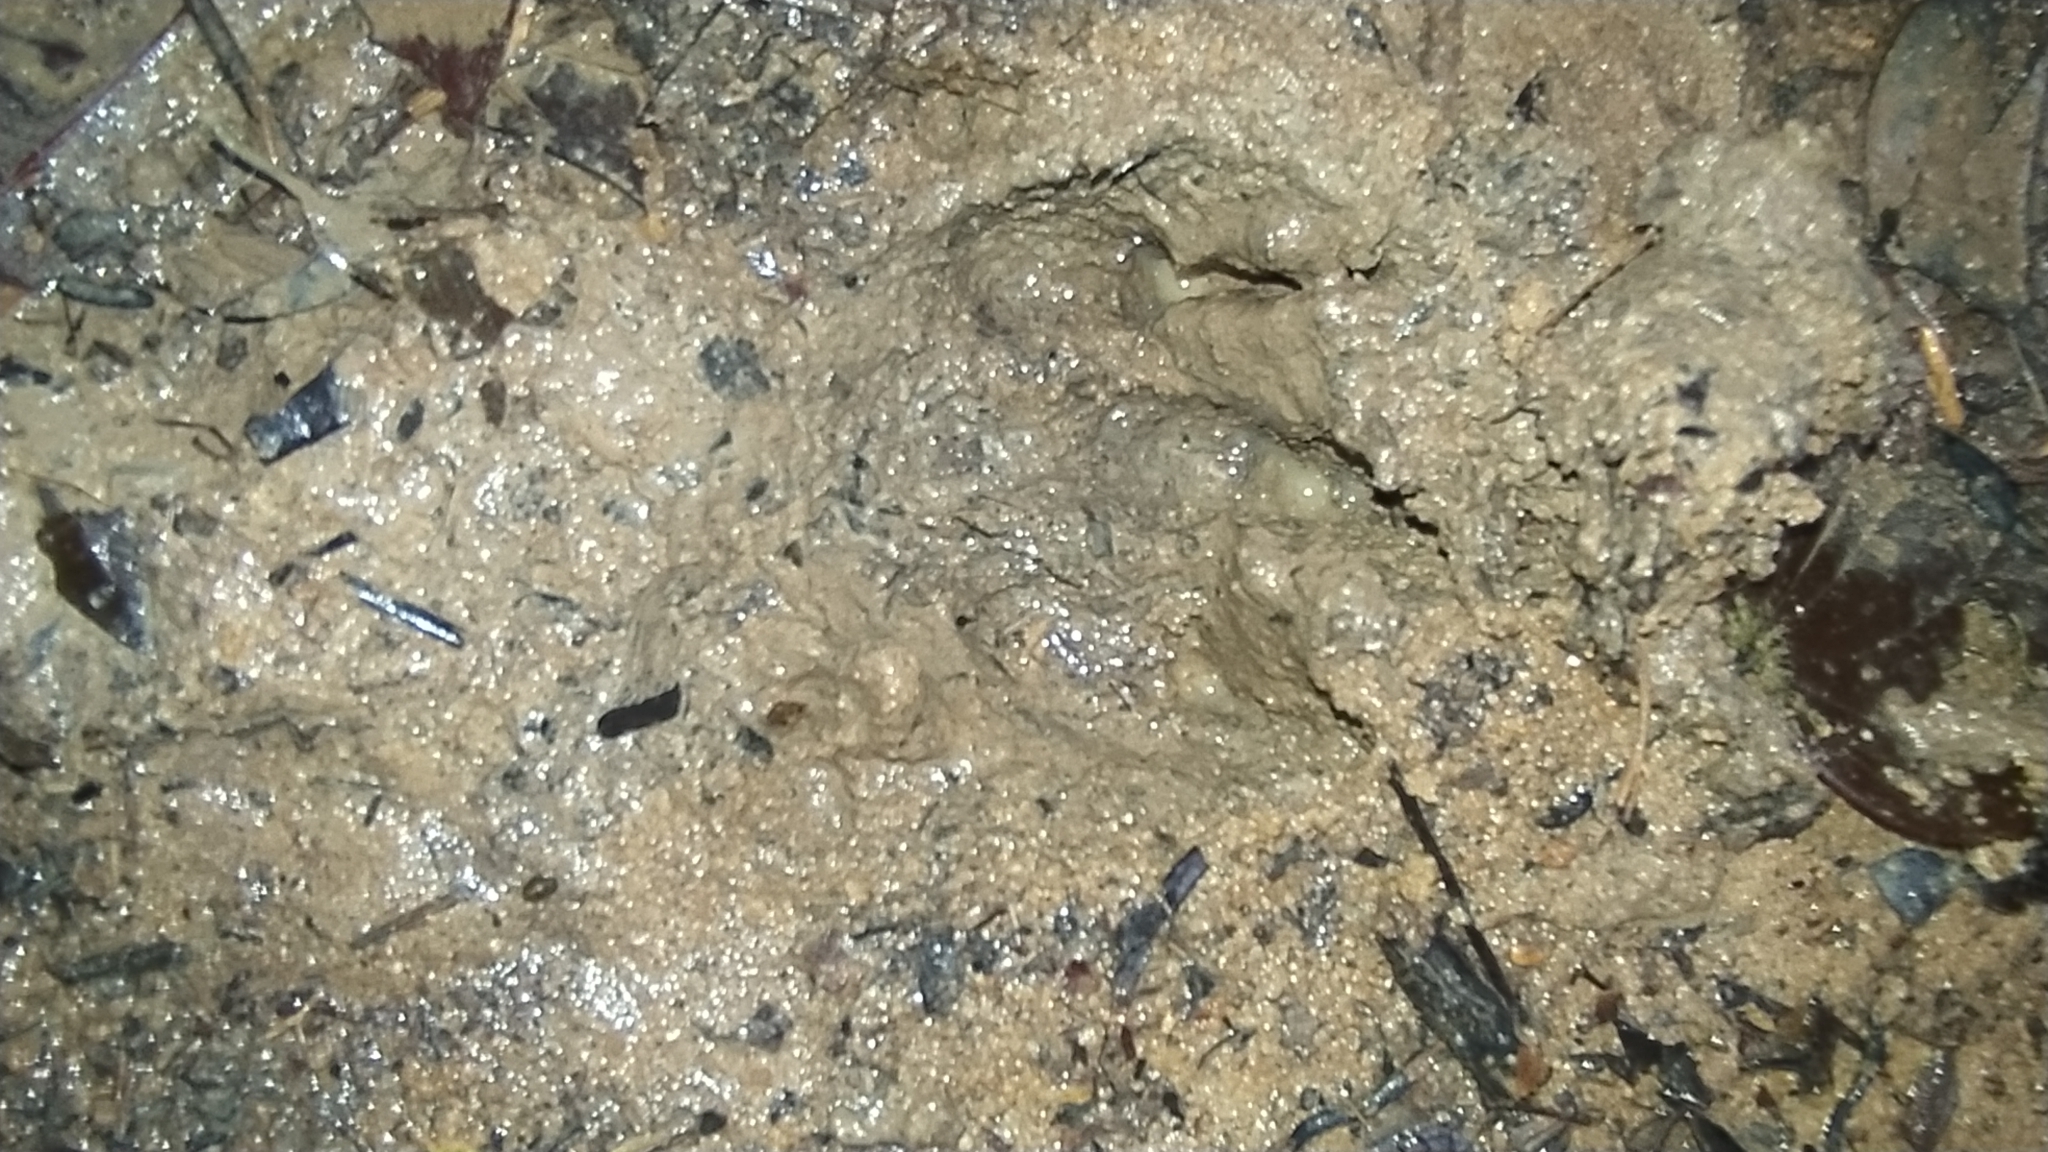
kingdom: Animalia
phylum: Chordata
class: Mammalia
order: Rodentia
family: Cuniculidae
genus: Cuniculus
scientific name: Cuniculus paca
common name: Lowland paca
